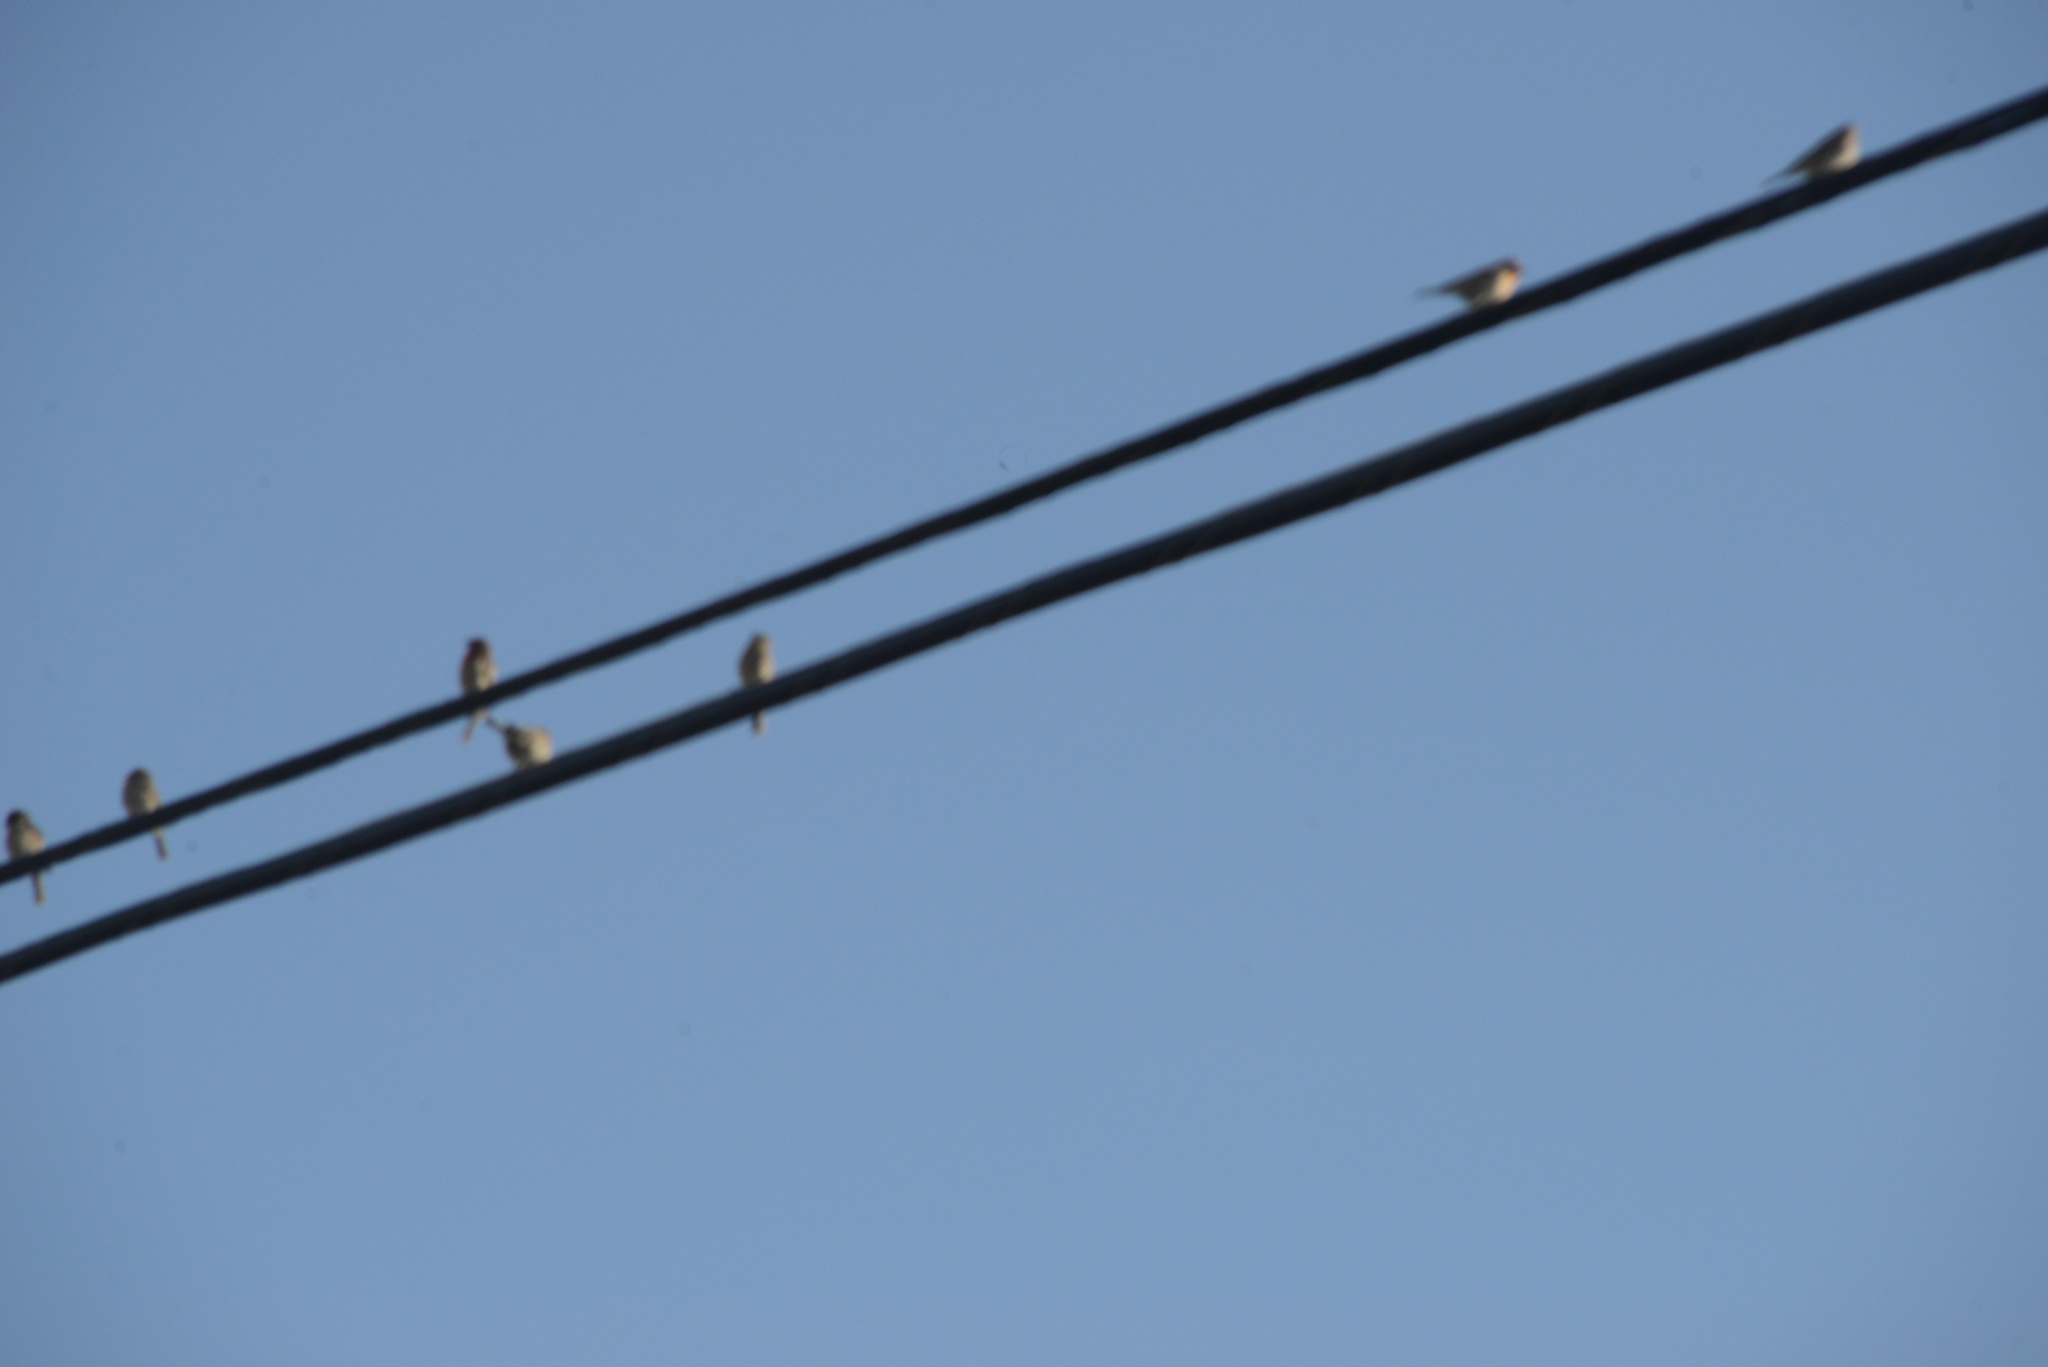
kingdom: Animalia
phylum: Chordata
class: Aves
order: Passeriformes
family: Fringillidae
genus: Haemorhous
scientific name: Haemorhous mexicanus
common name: House finch
